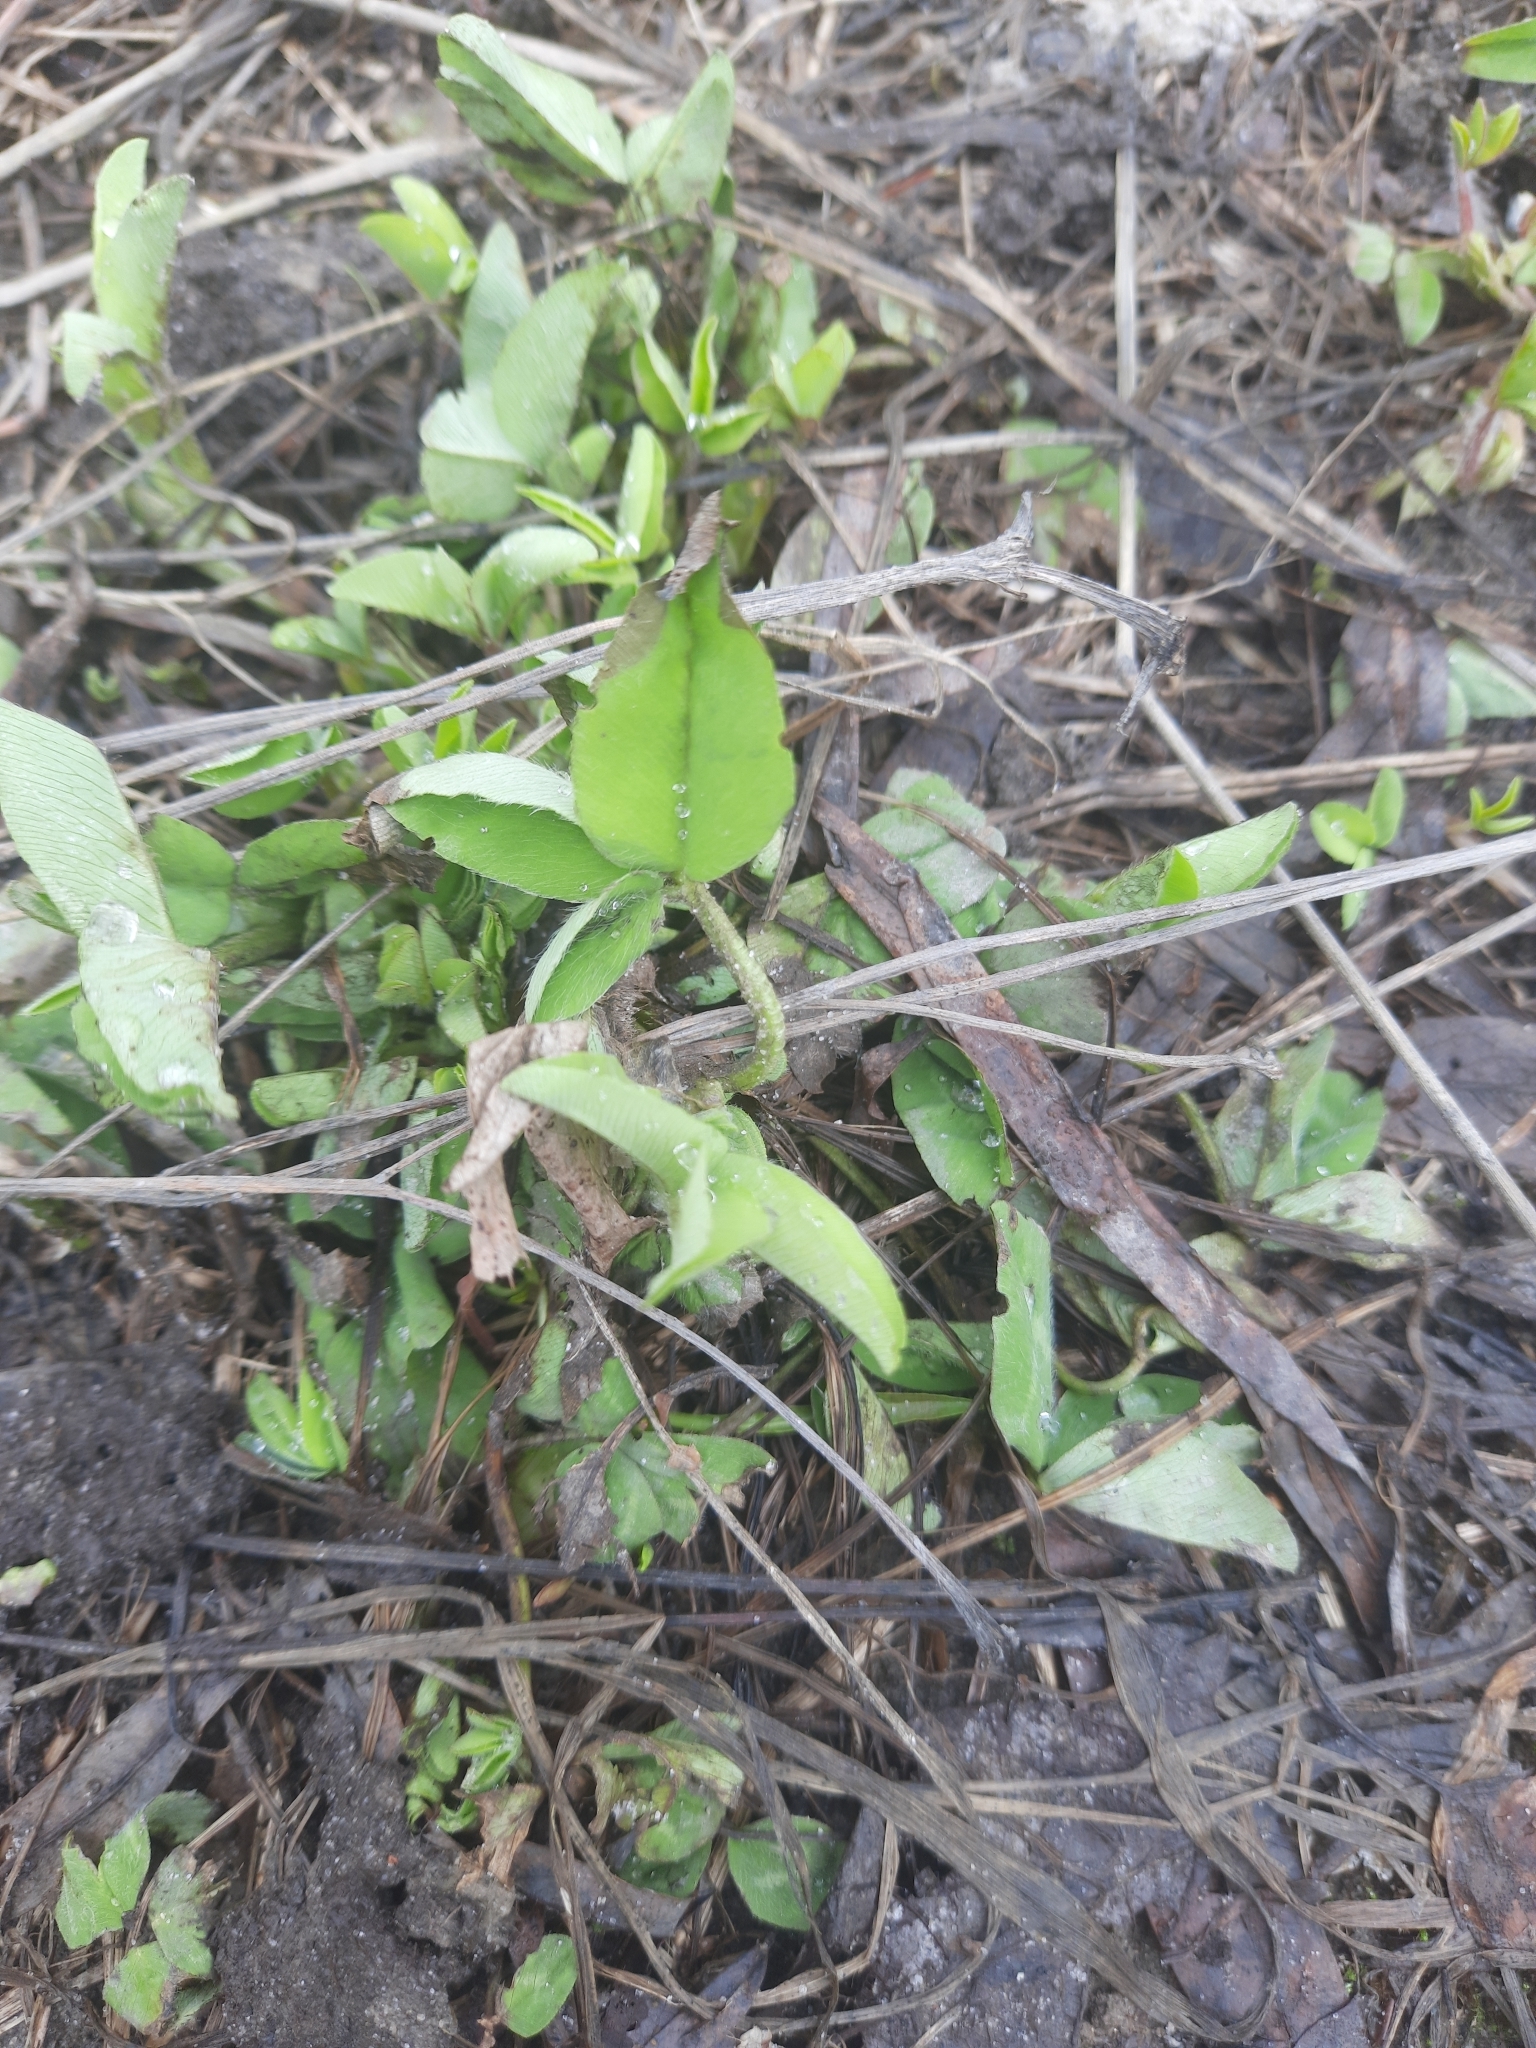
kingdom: Plantae
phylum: Tracheophyta
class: Magnoliopsida
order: Fabales
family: Fabaceae
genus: Trifolium
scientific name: Trifolium pratense
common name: Red clover
